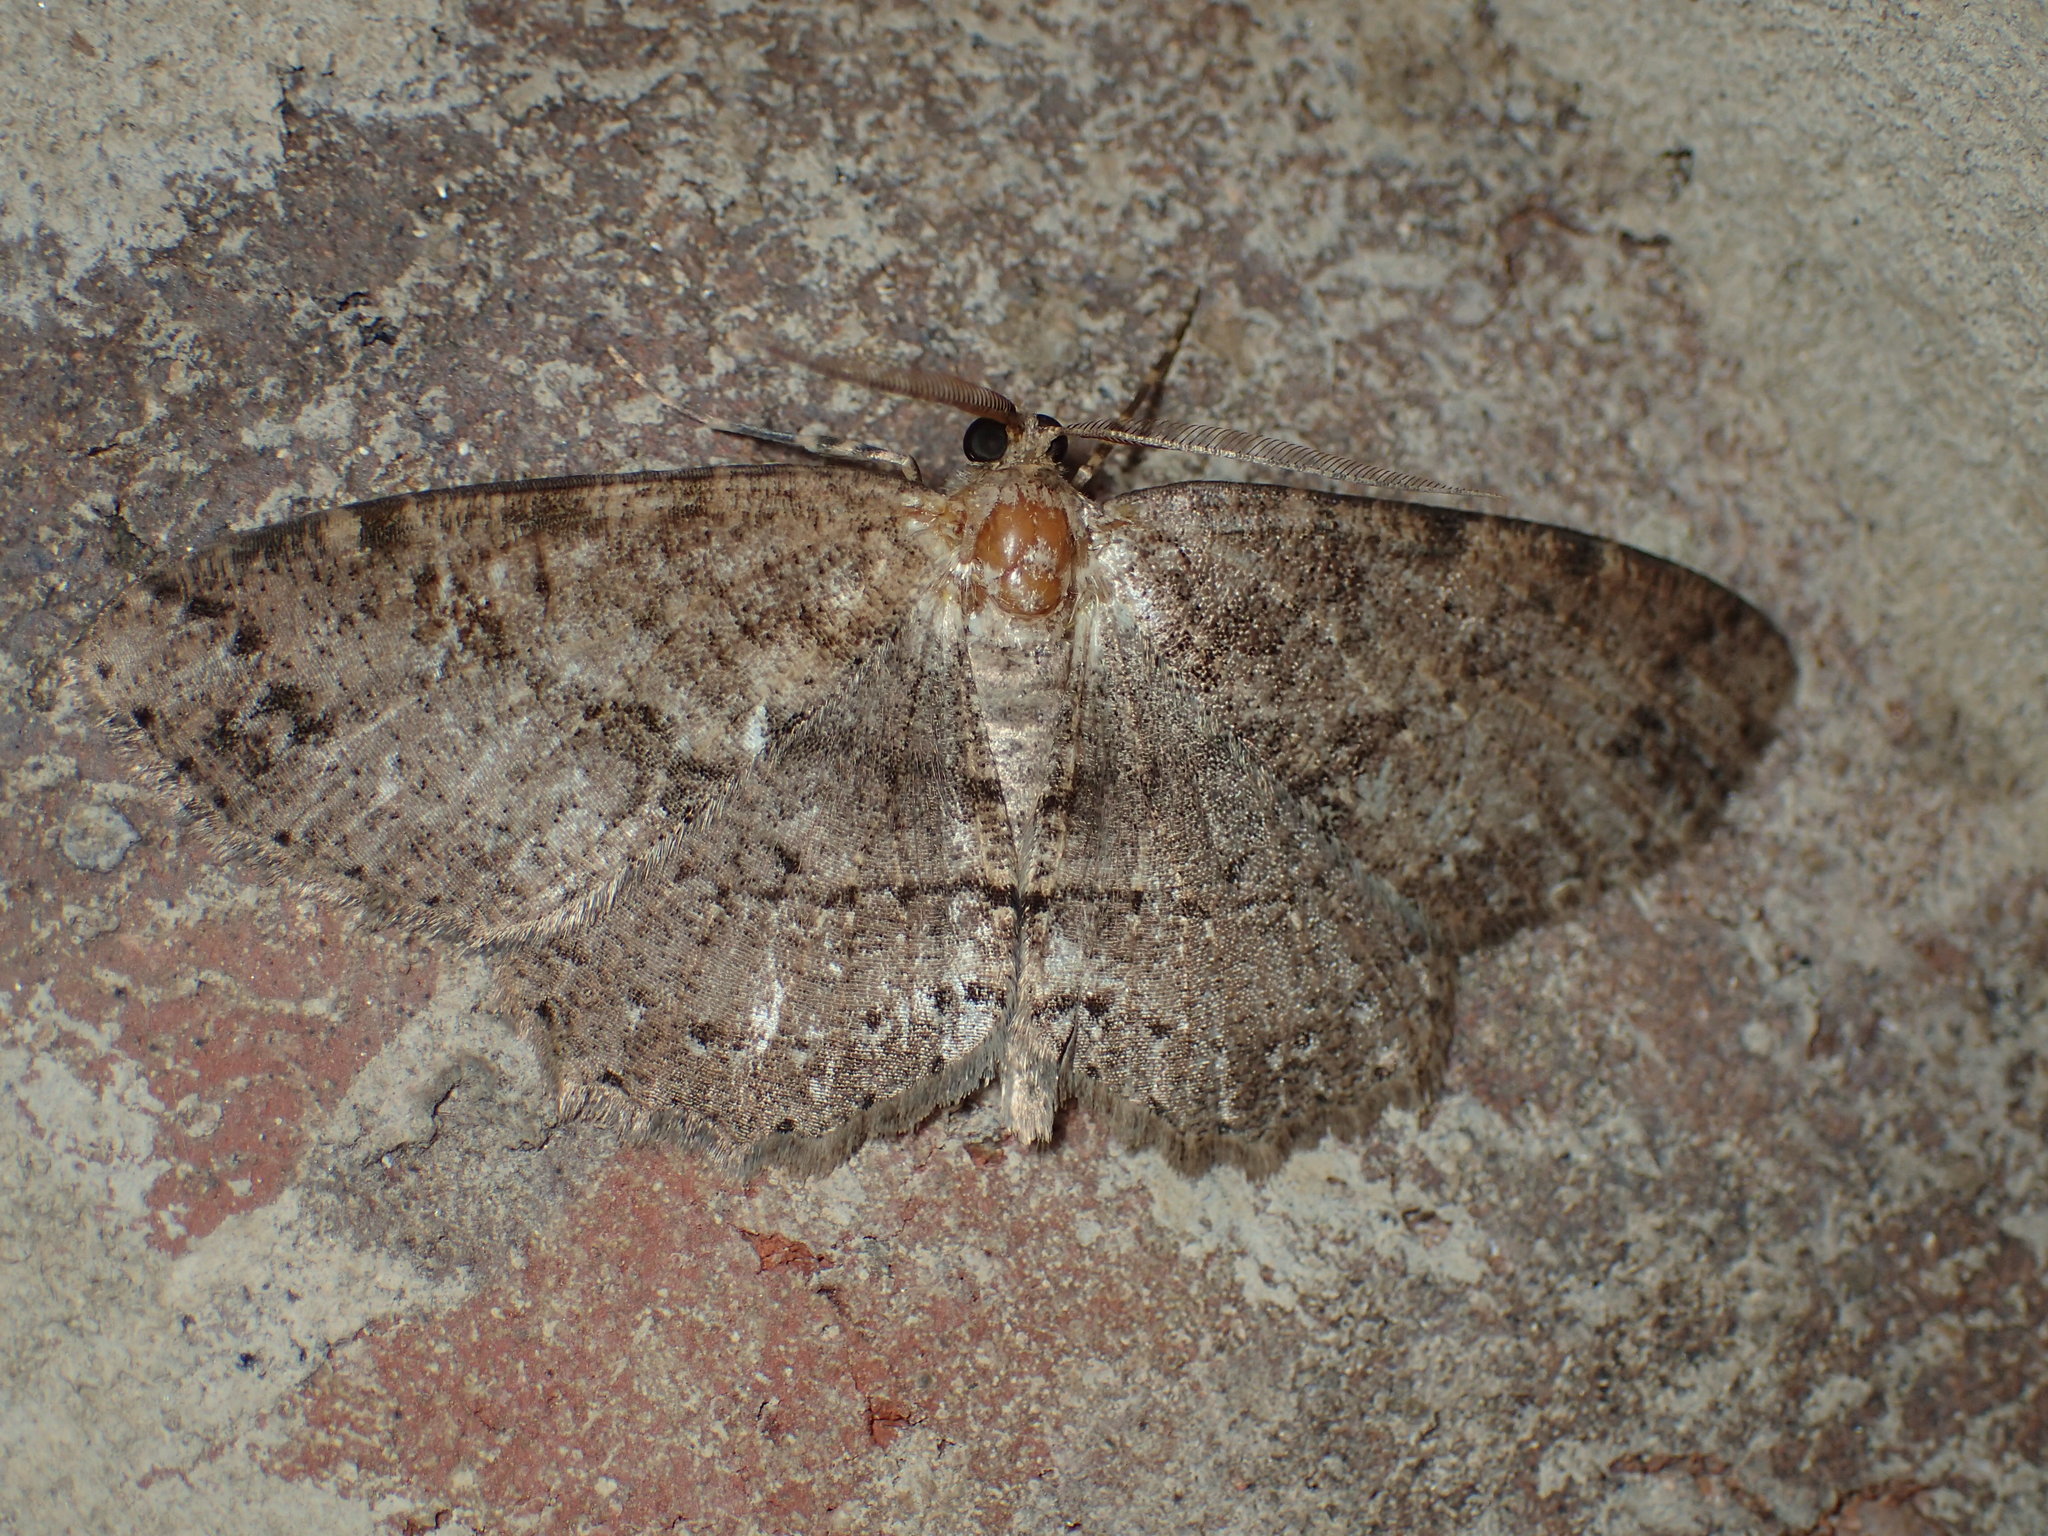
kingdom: Animalia
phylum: Arthropoda
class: Insecta
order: Lepidoptera
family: Geometridae
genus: Melanolophia
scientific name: Melanolophia canadaria
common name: Canadian melanolophia
